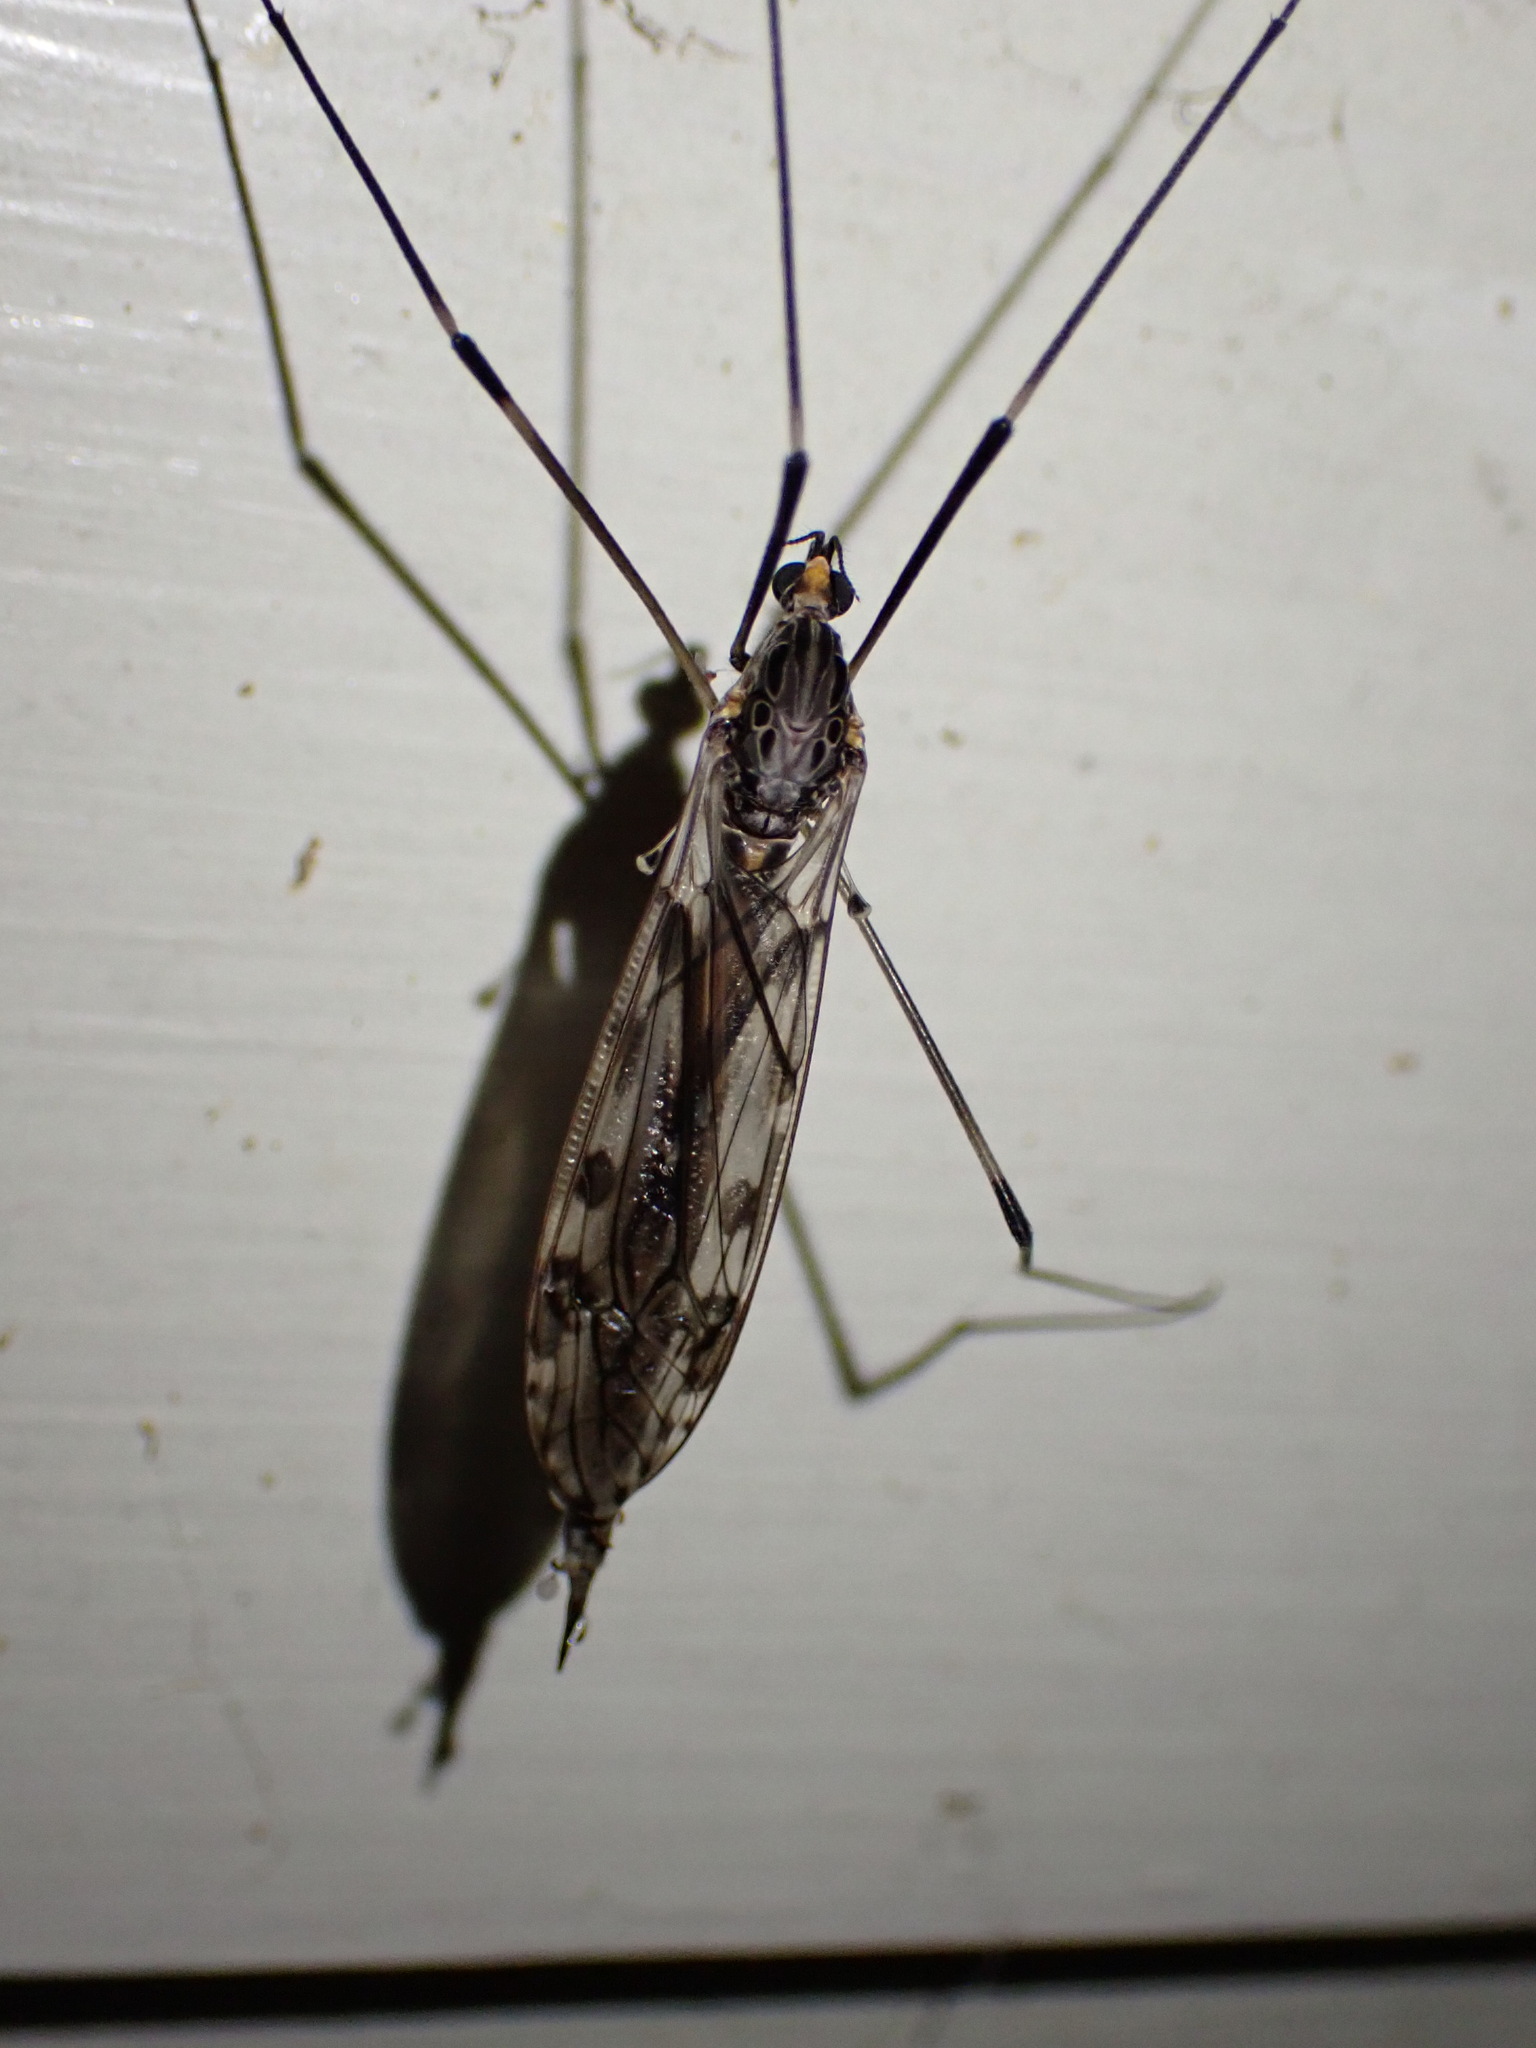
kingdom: Animalia
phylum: Arthropoda
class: Insecta
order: Diptera
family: Tipulidae
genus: Tipula
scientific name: Tipula abdominalis
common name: Giant crane fly
